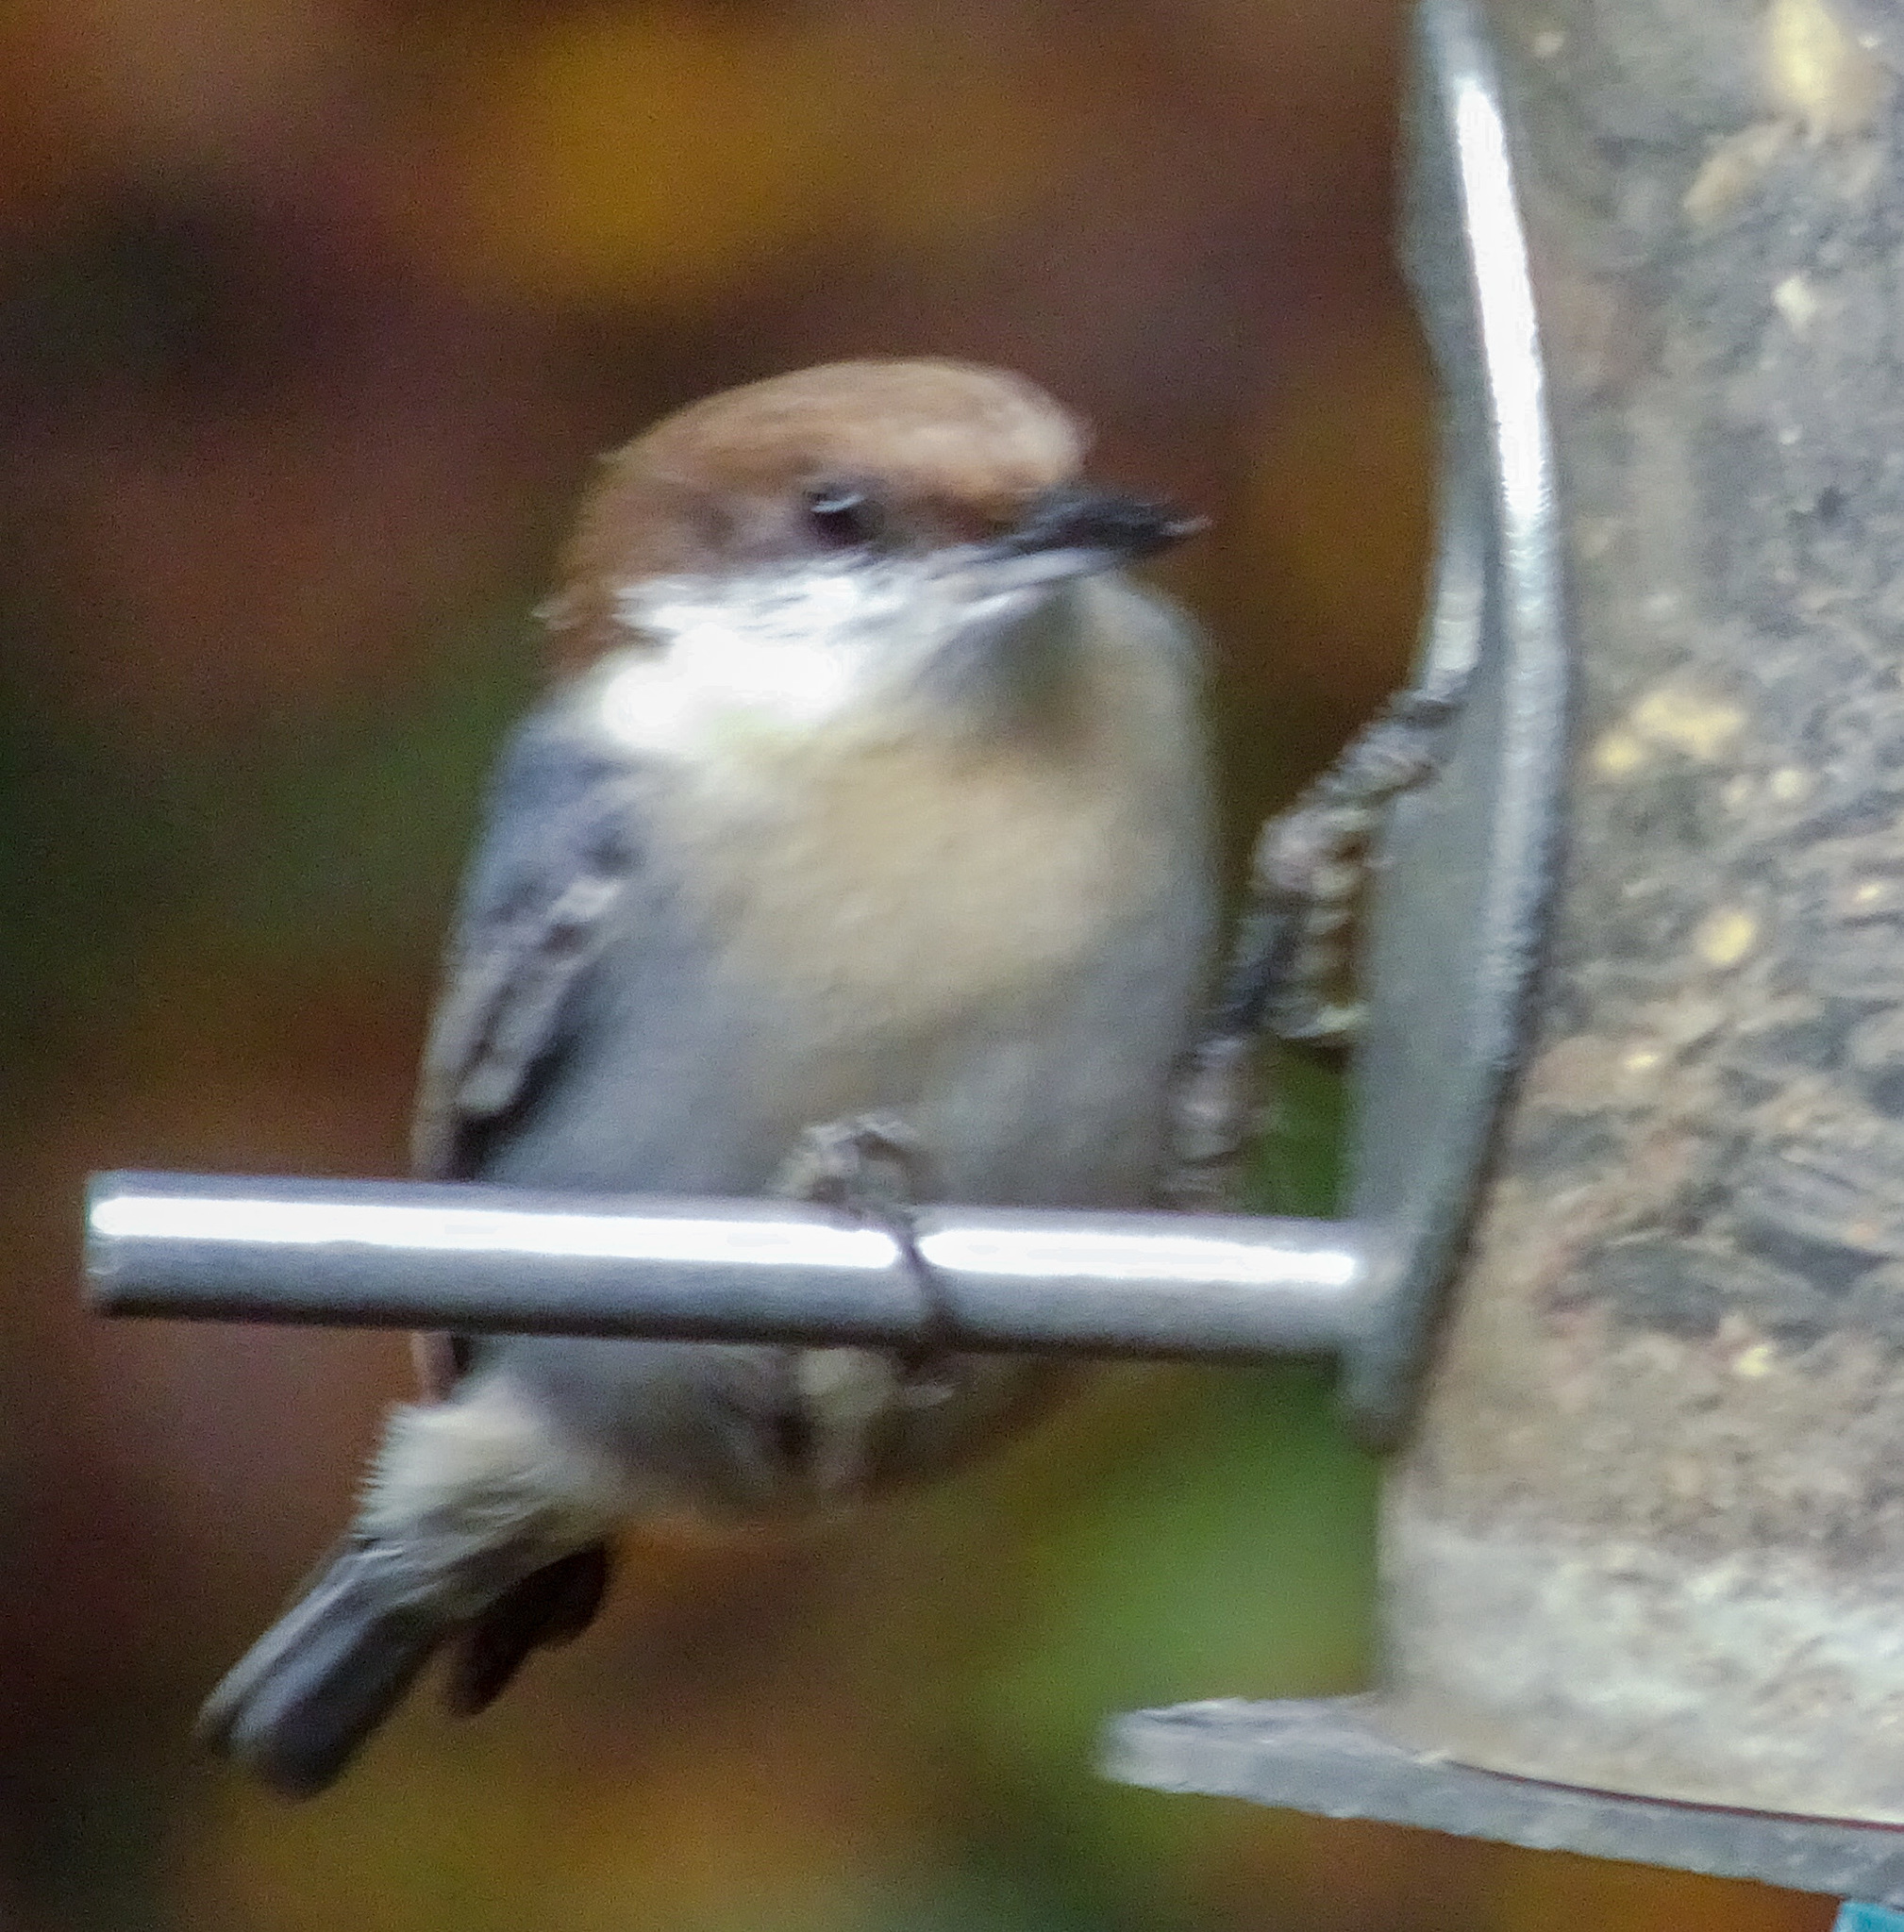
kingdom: Animalia
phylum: Chordata
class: Aves
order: Passeriformes
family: Sittidae
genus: Sitta
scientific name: Sitta pusilla
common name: Brown-headed nuthatch
